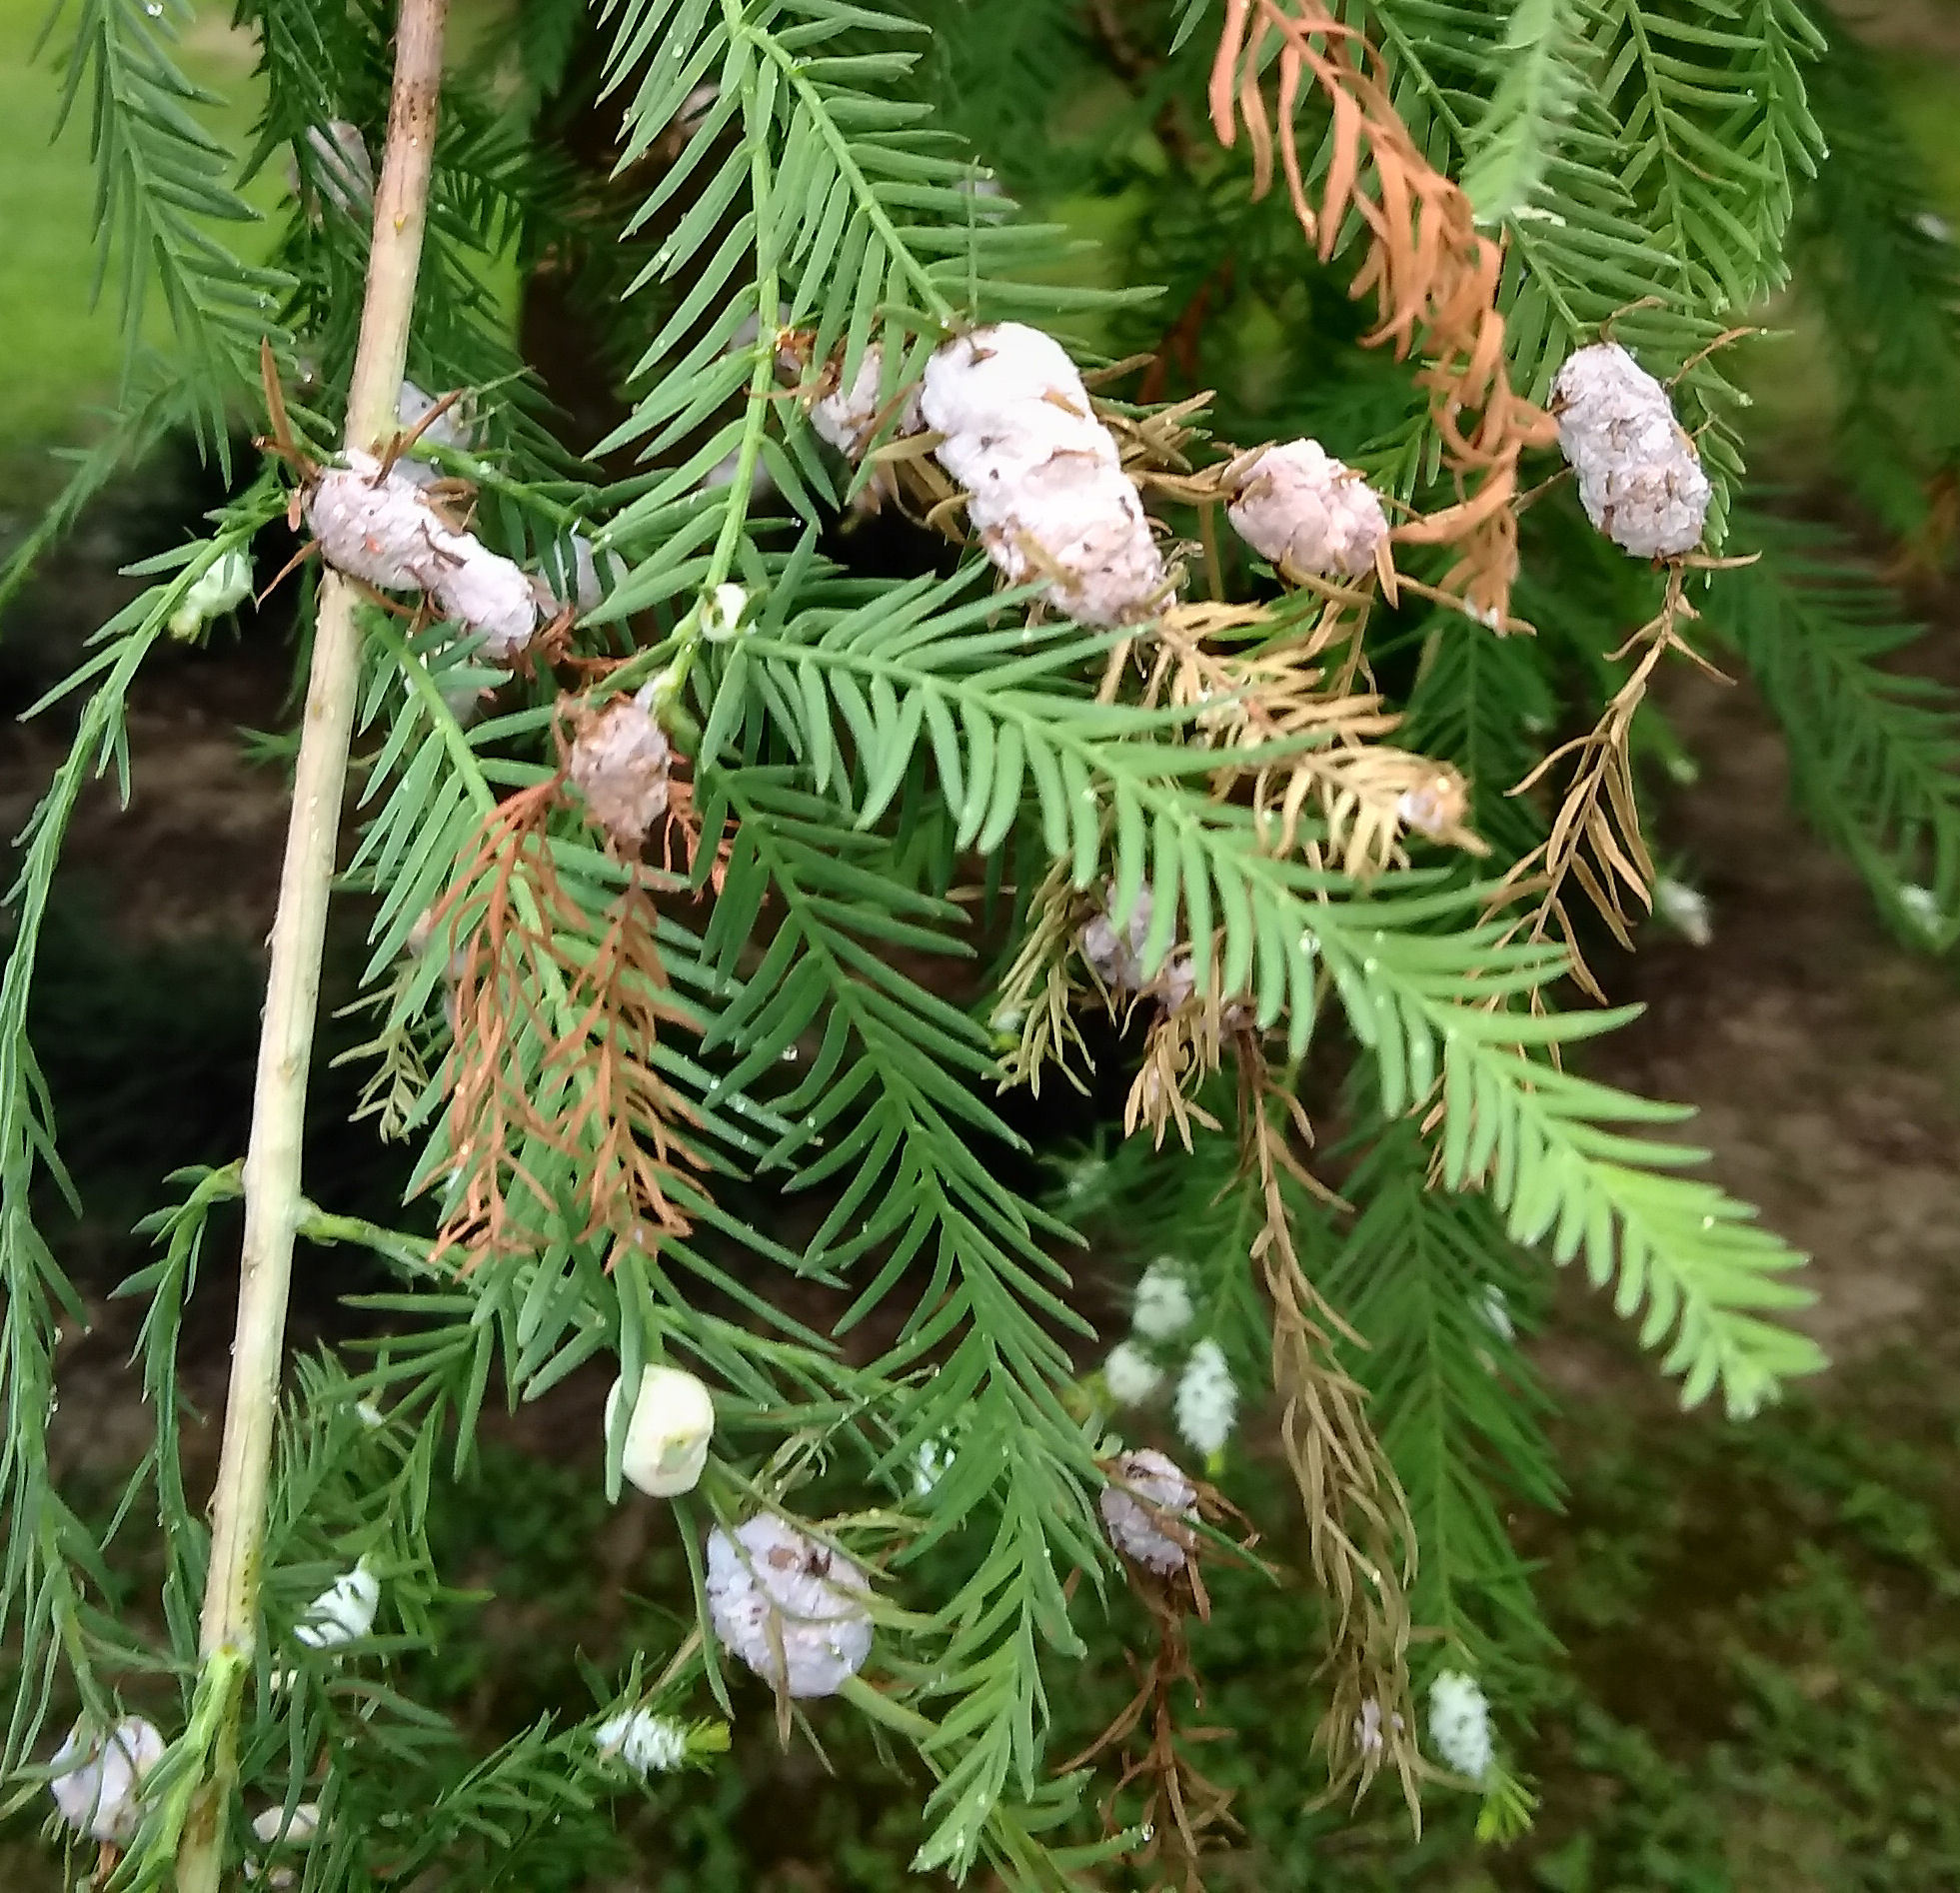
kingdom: Animalia
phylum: Arthropoda
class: Insecta
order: Diptera
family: Cecidomyiidae
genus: Taxodiomyia
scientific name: Taxodiomyia cupressiananassa
